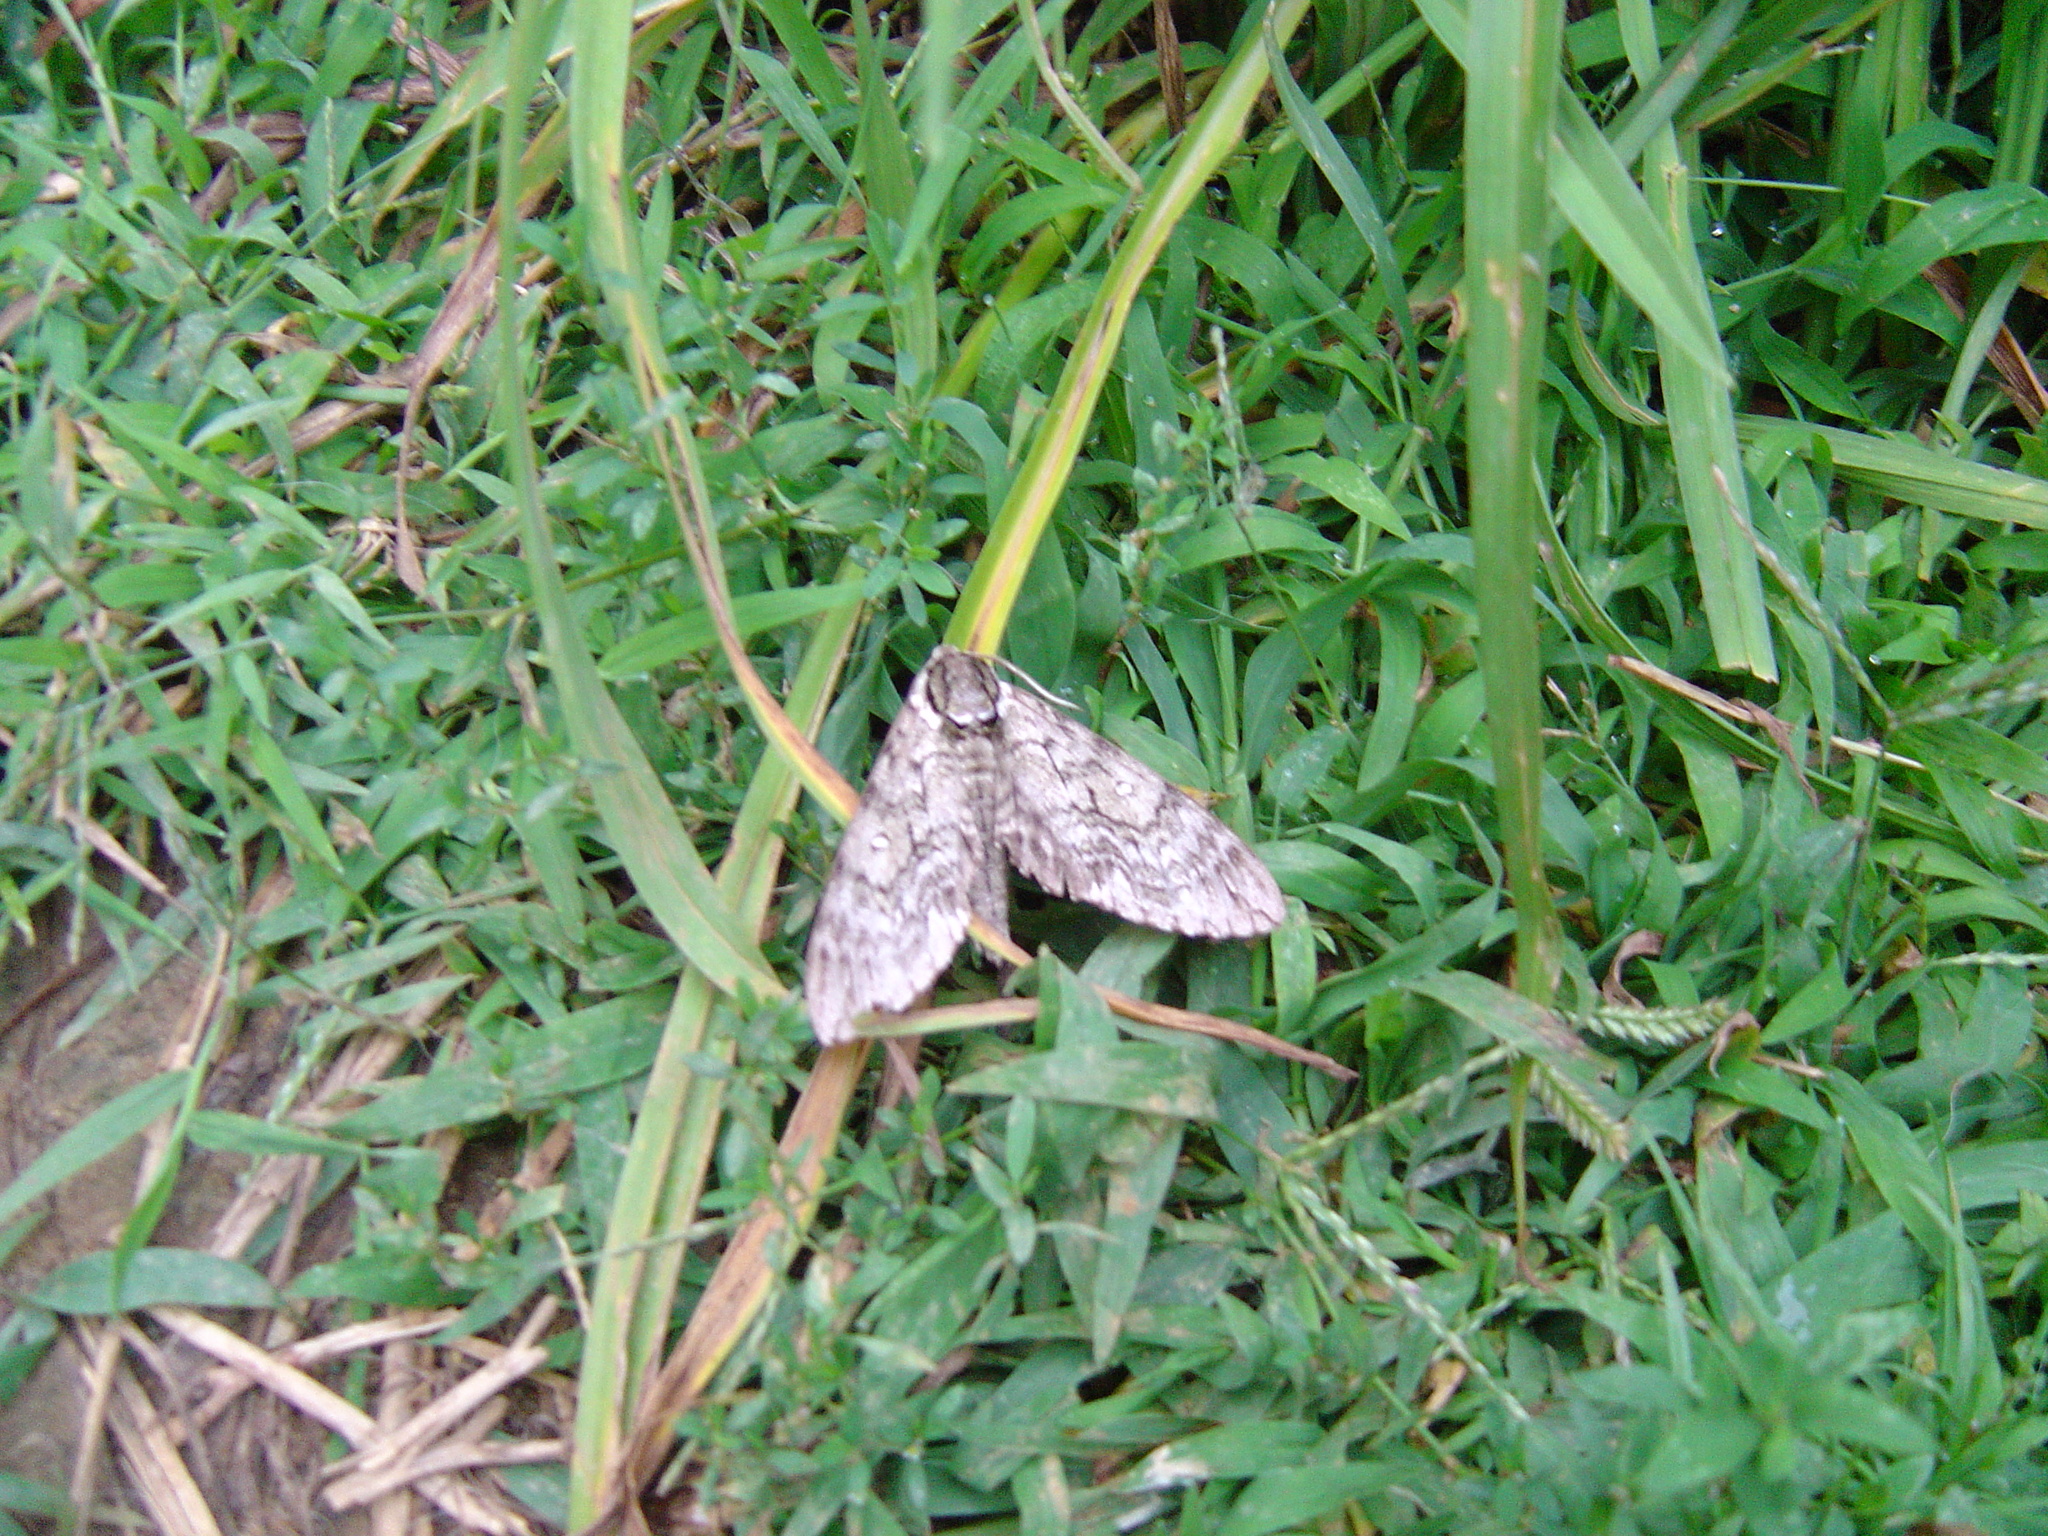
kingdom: Animalia
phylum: Arthropoda
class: Insecta
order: Lepidoptera
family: Sphingidae
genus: Ceratomia
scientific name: Ceratomia undulosa
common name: Waved sphinx
